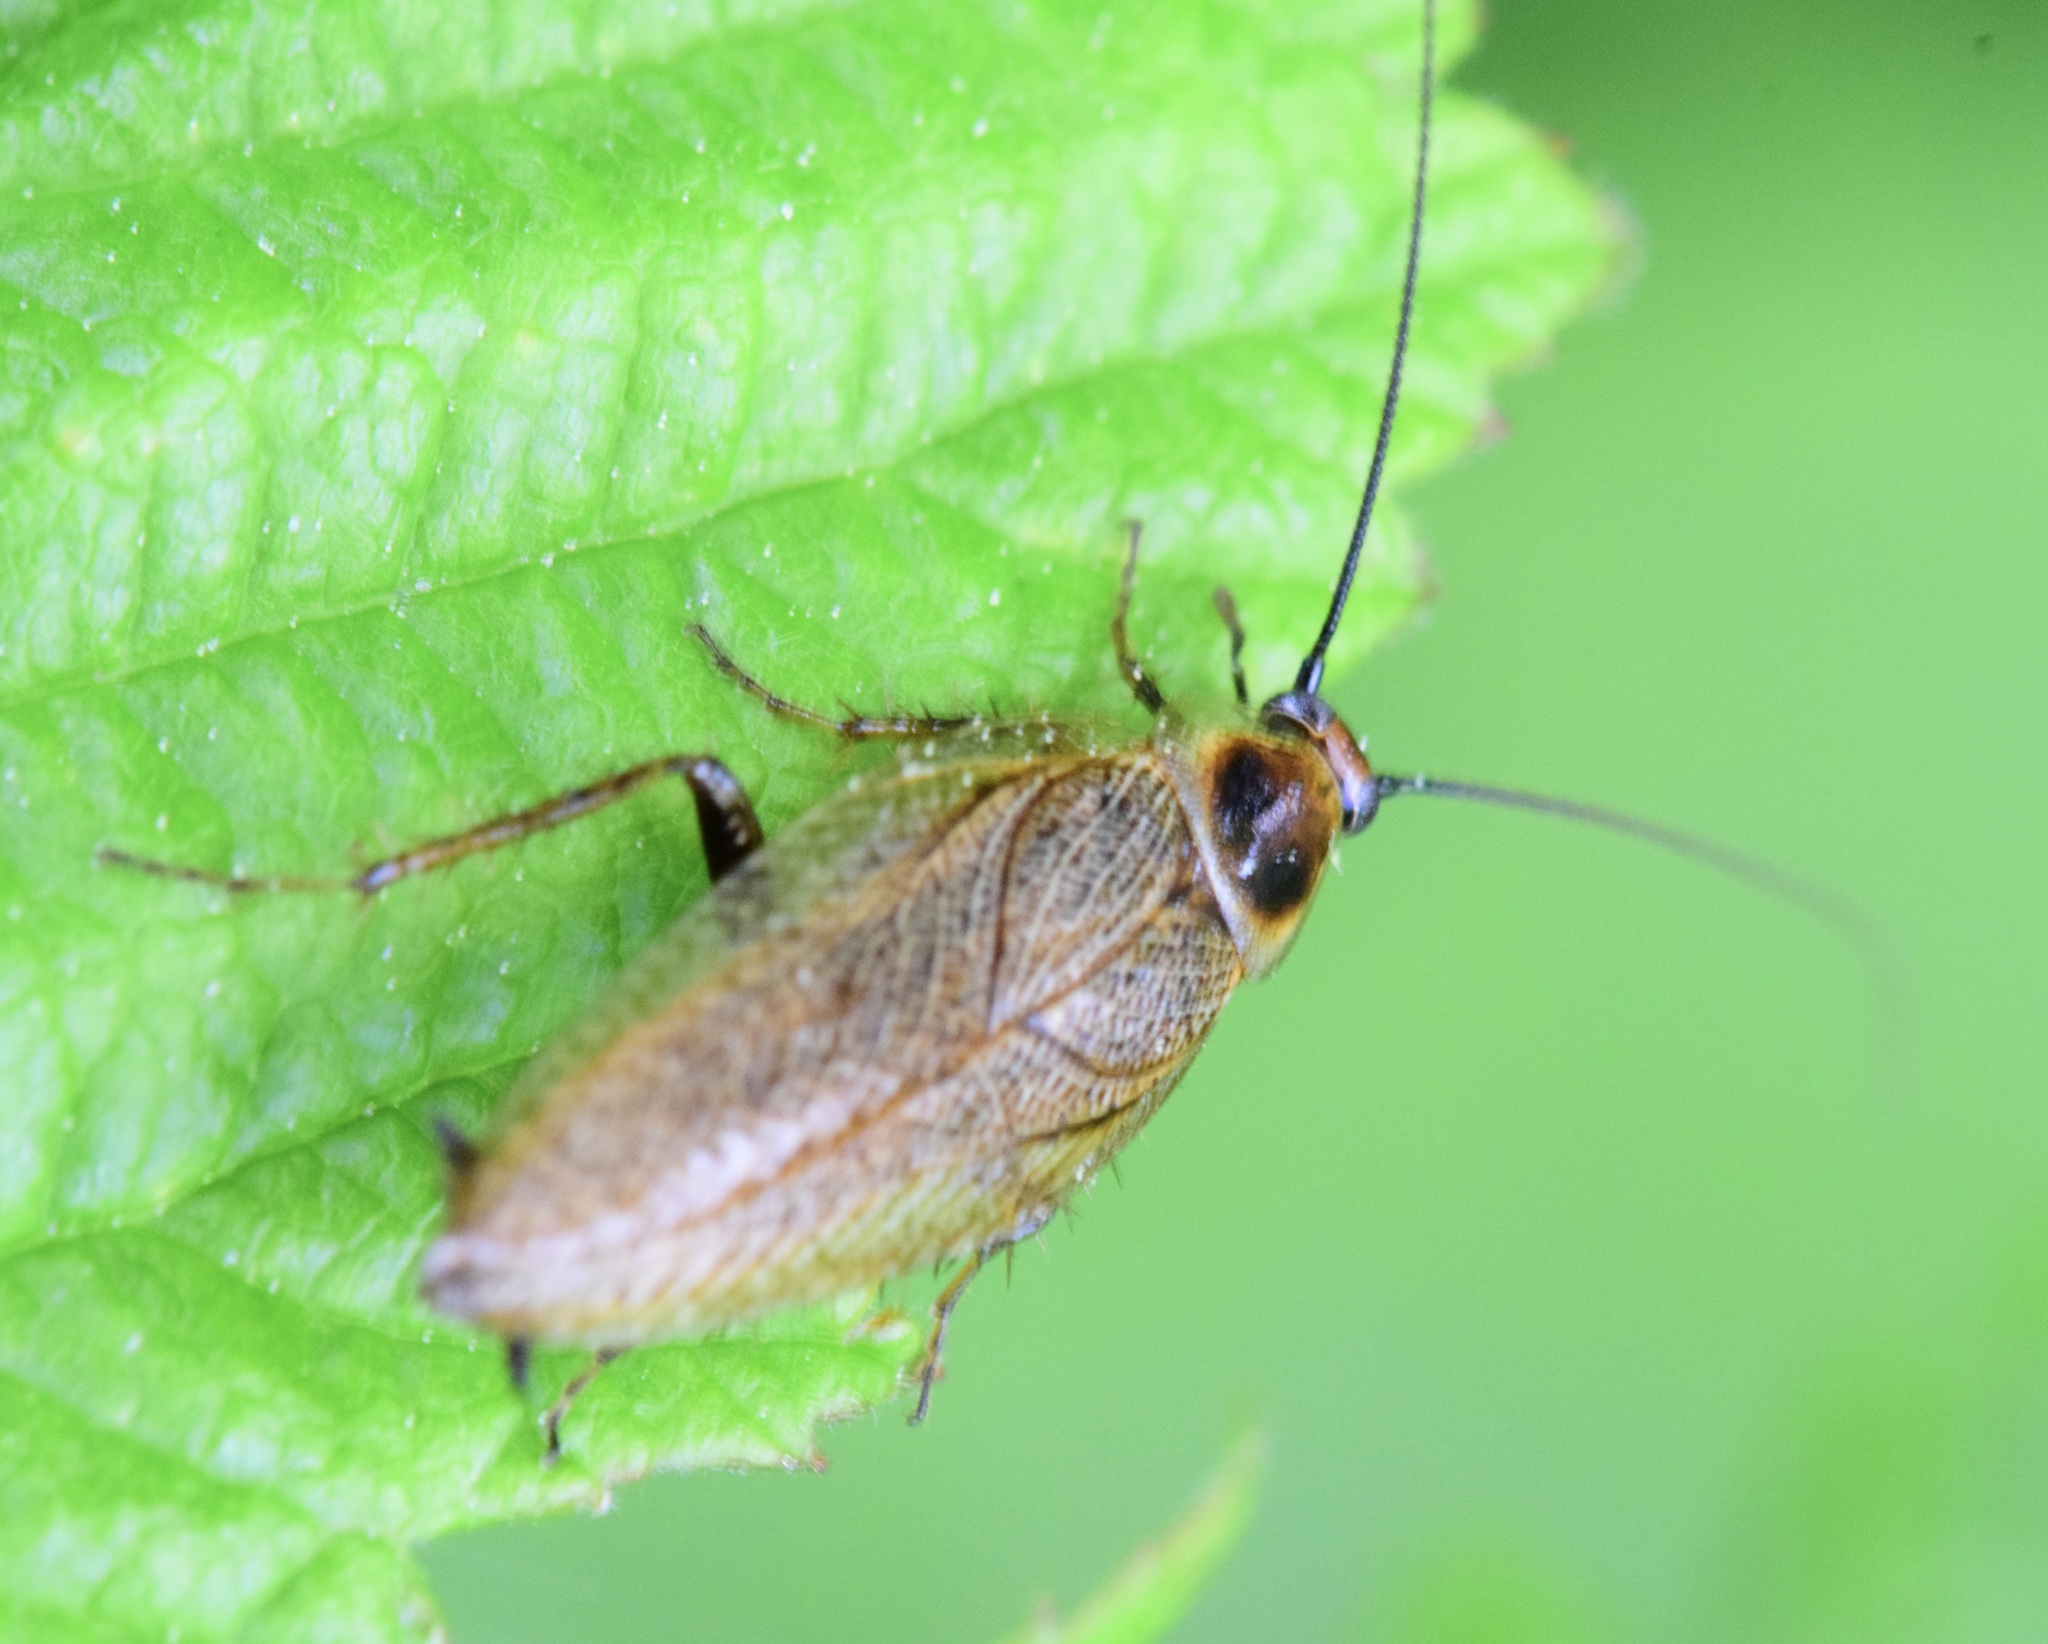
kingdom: Animalia
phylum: Arthropoda
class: Insecta
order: Blattodea
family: Ectobiidae
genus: Ectobius
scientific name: Ectobius lapponicus
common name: Dusky cockroach
